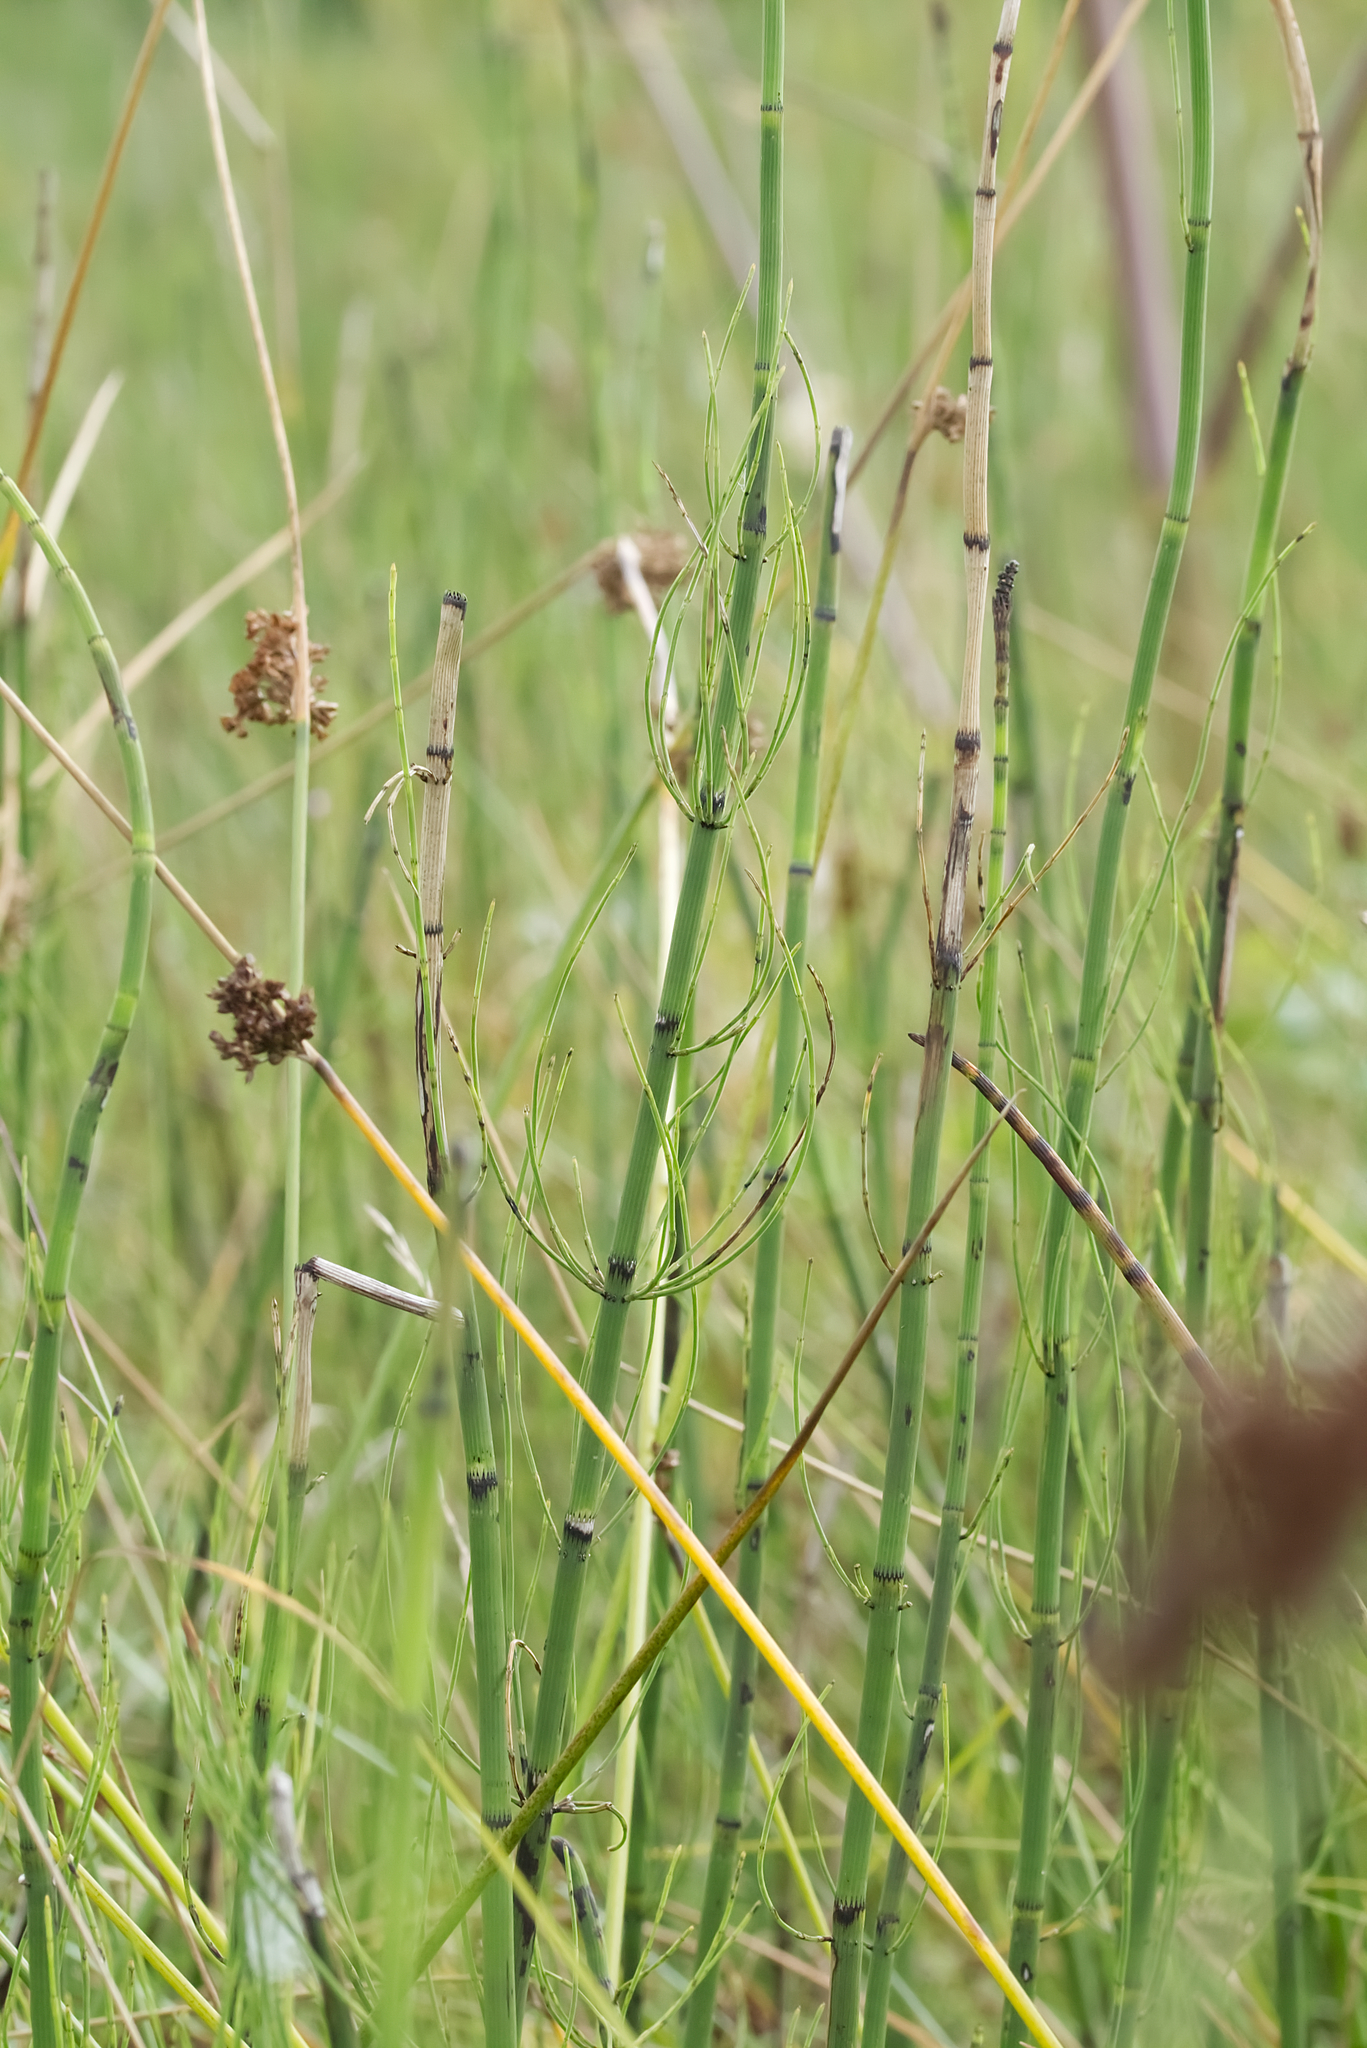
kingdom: Plantae
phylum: Tracheophyta
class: Polypodiopsida
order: Equisetales
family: Equisetaceae
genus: Equisetum
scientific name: Equisetum fluviatile
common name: Water horsetail
